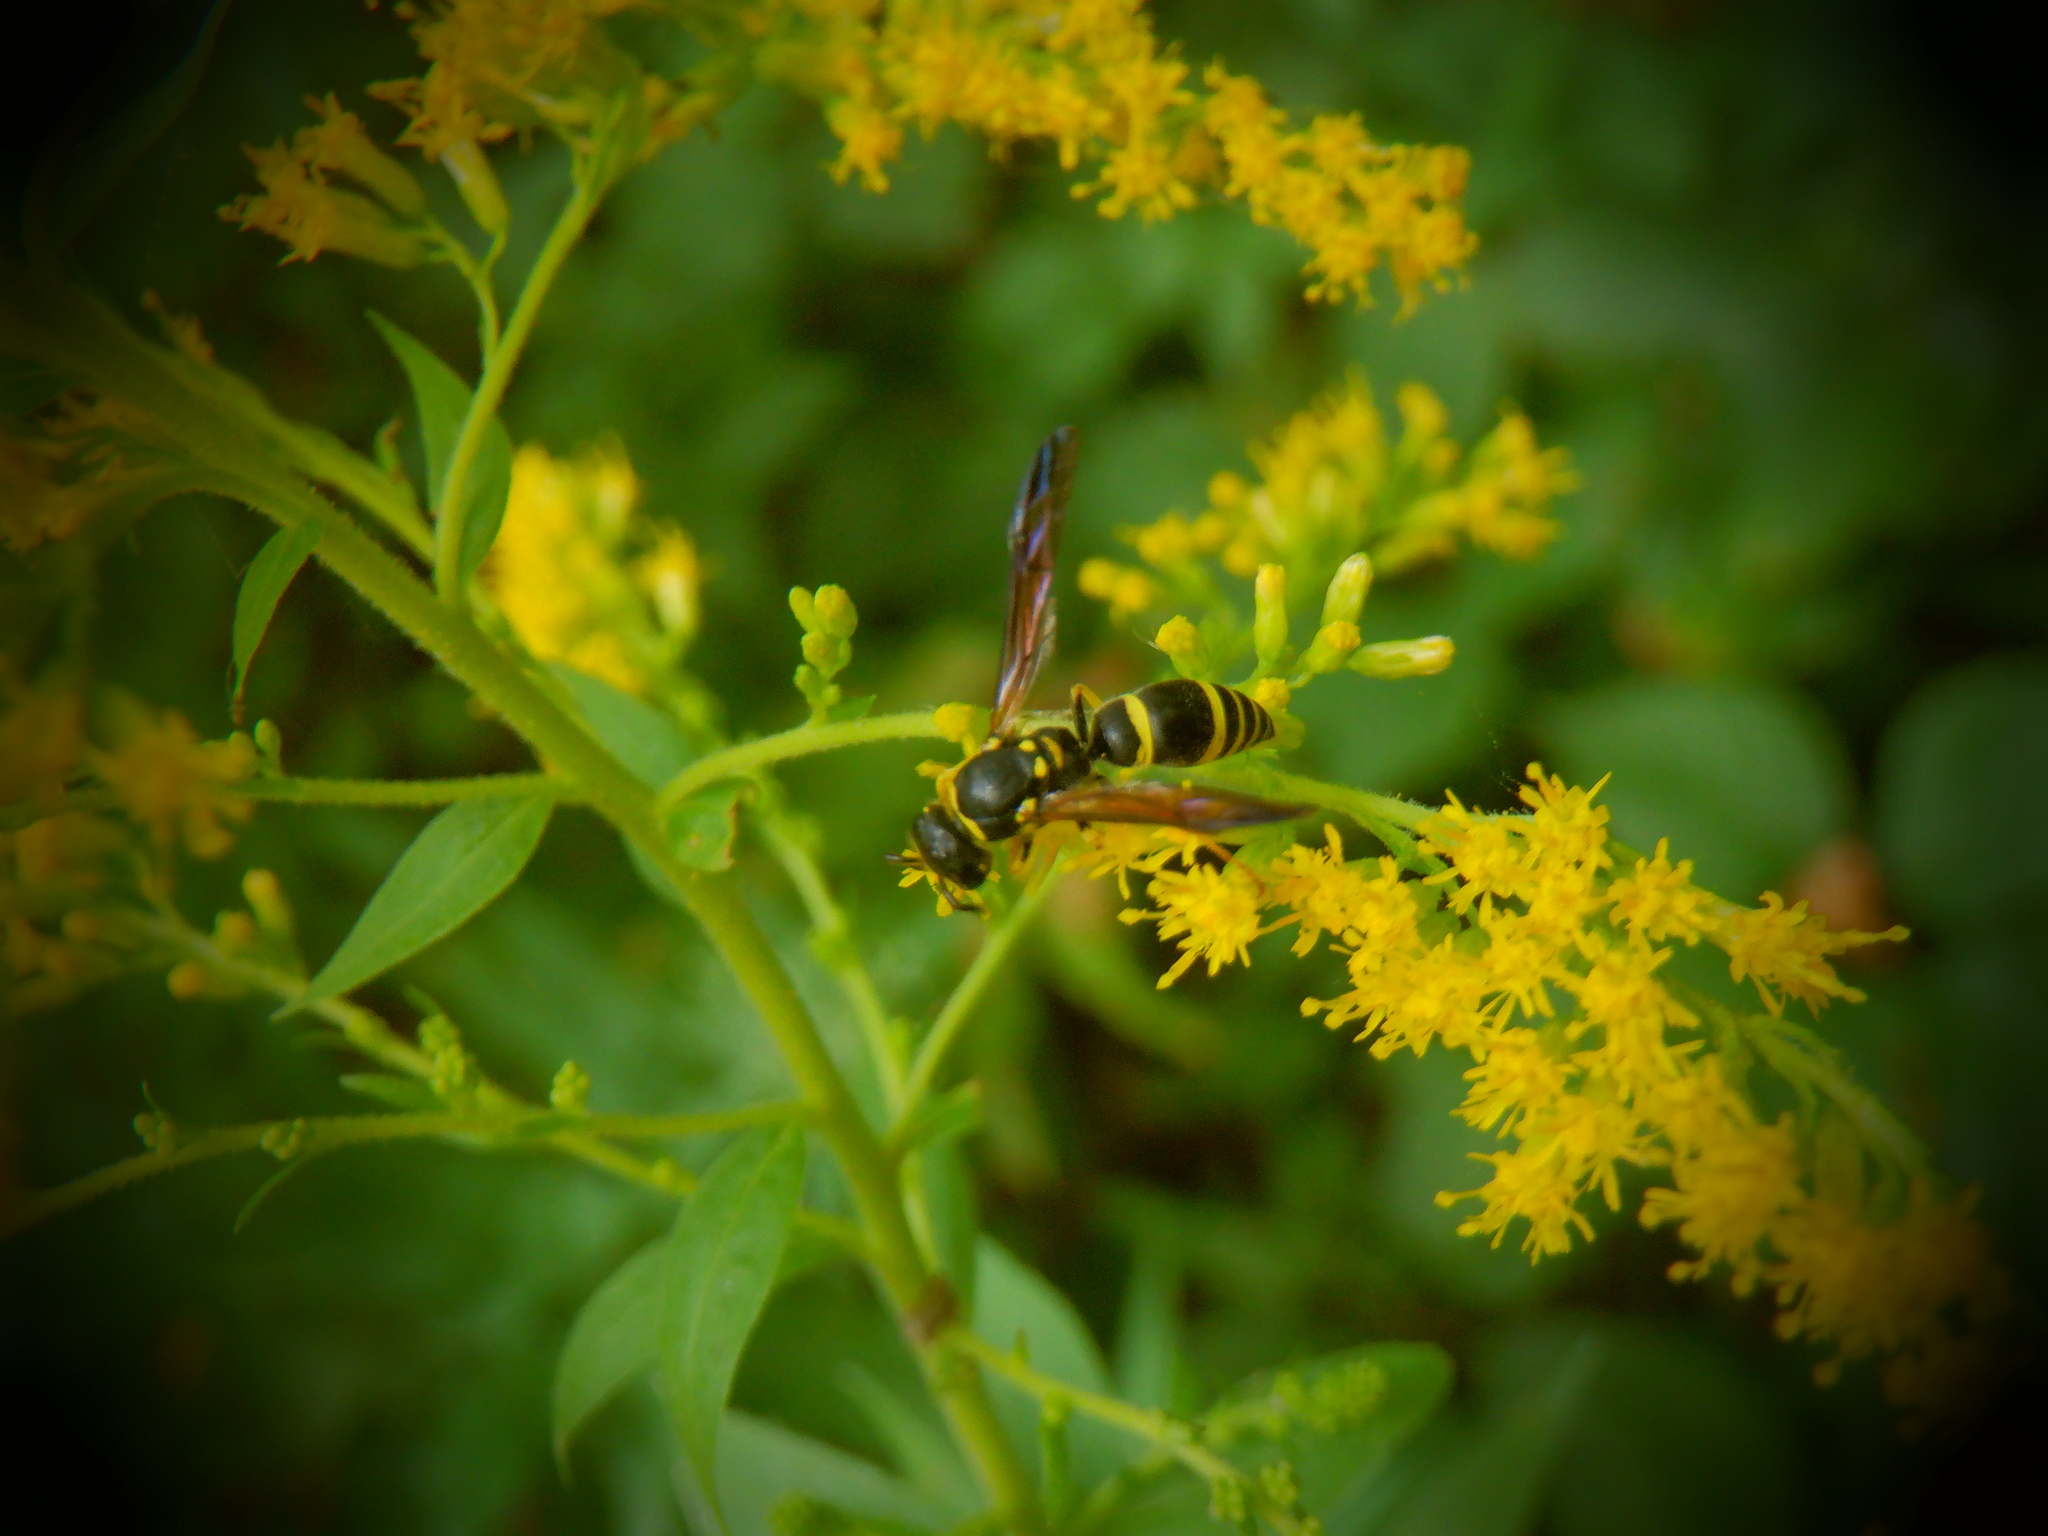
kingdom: Animalia
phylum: Arthropoda
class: Insecta
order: Hymenoptera
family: Vespidae
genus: Ancistrocerus
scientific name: Ancistrocerus adiabatus
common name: Bramble mason wasp
